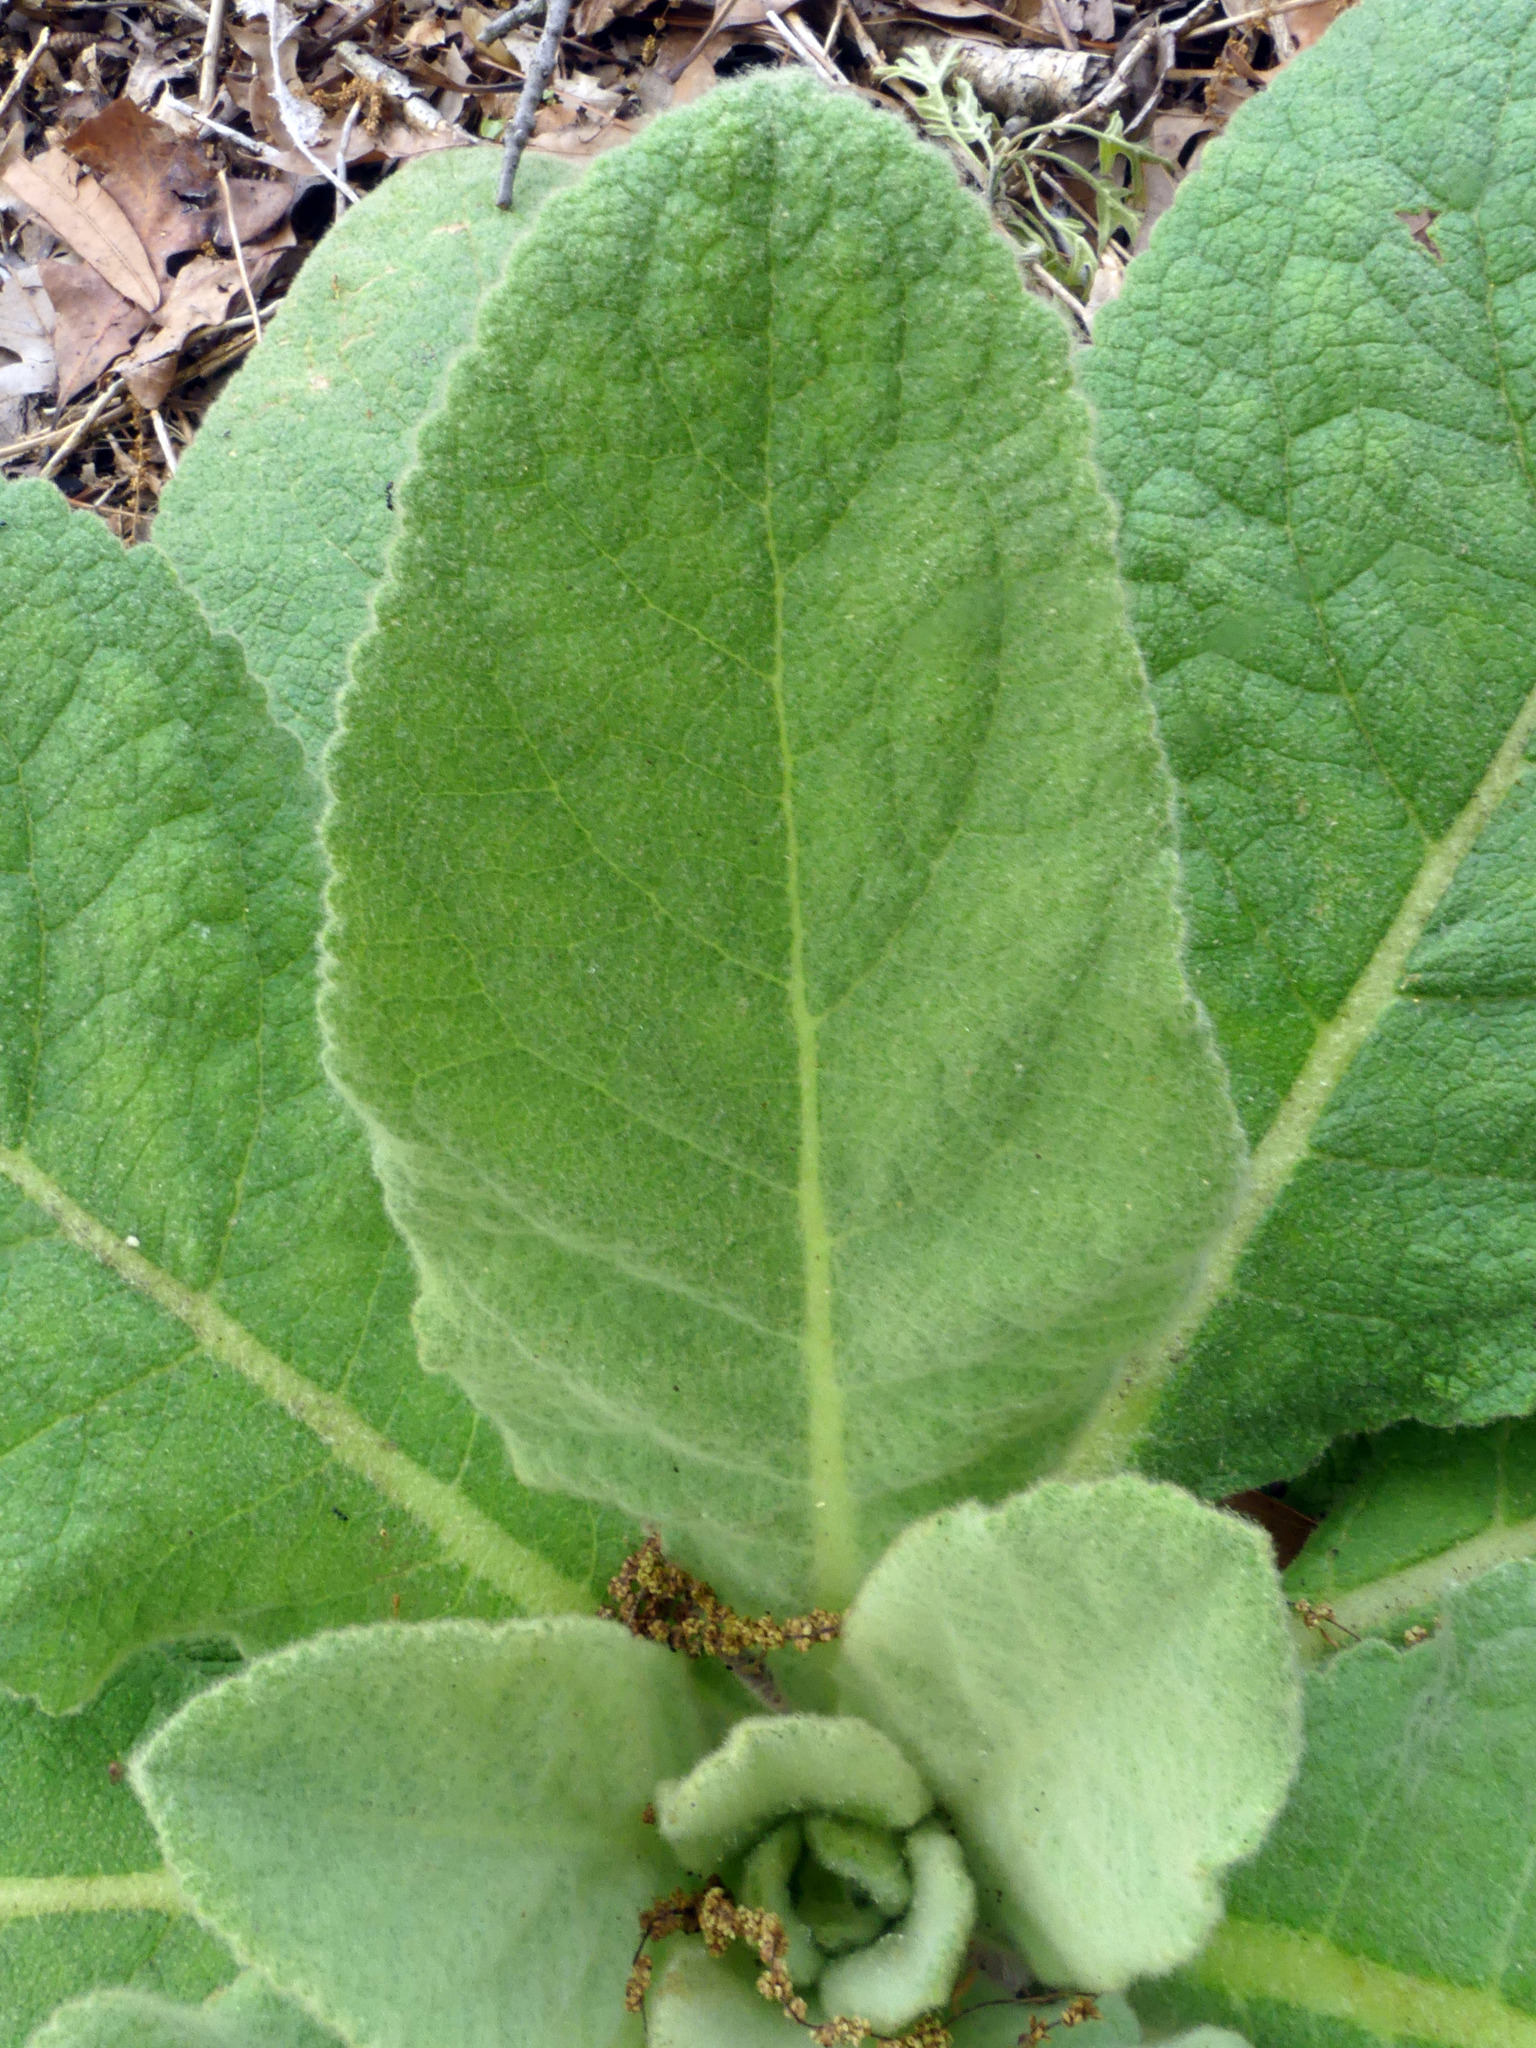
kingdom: Plantae
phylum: Tracheophyta
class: Magnoliopsida
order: Lamiales
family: Scrophulariaceae
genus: Verbascum
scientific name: Verbascum thapsus
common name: Common mullein
